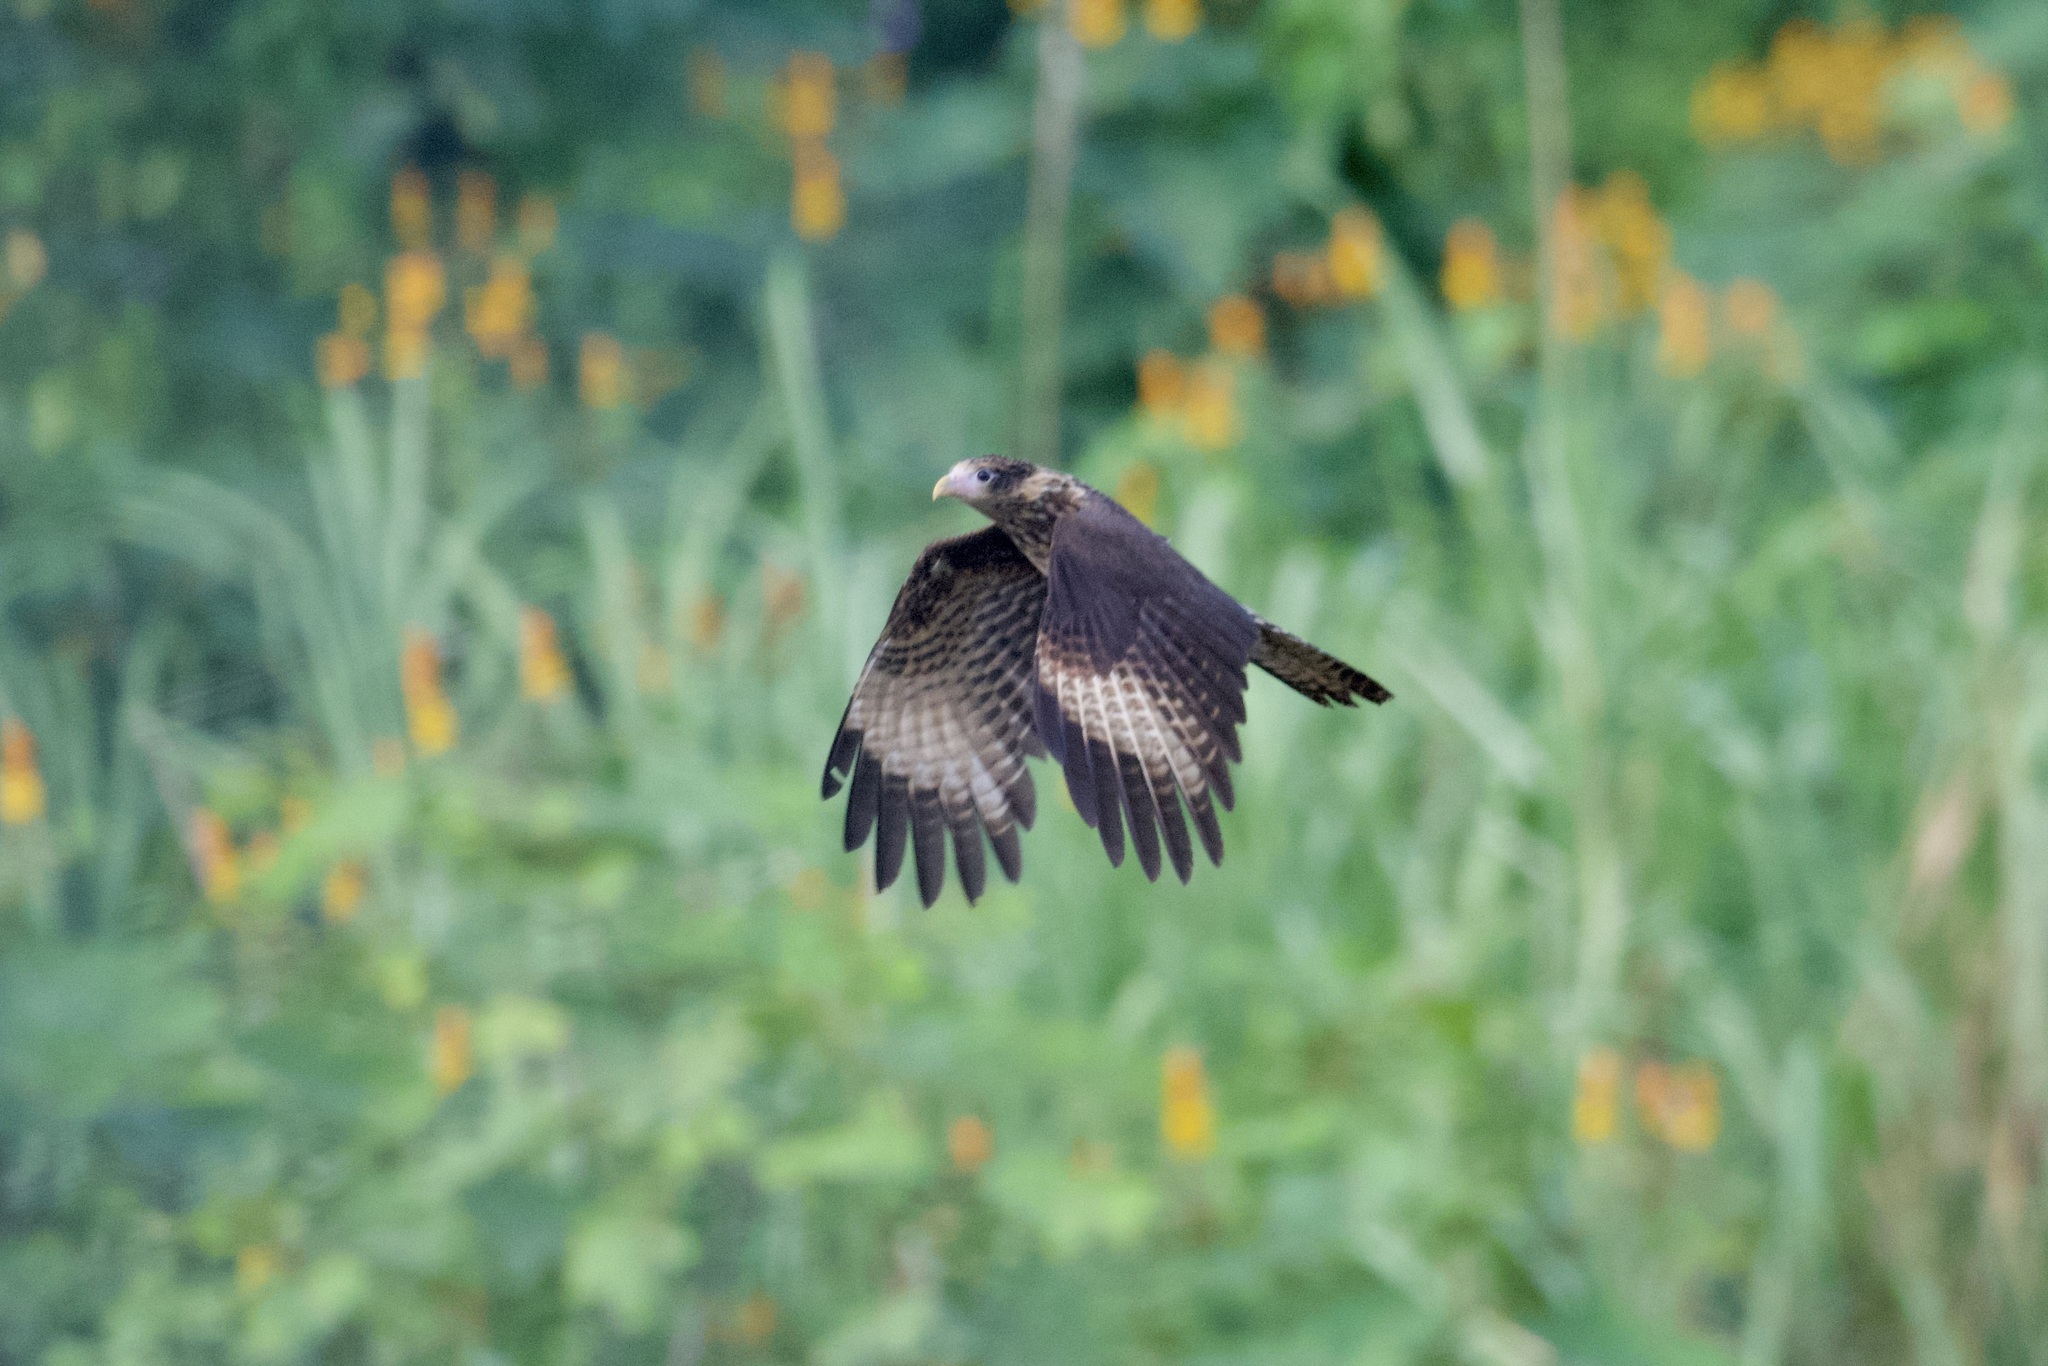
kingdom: Animalia
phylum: Chordata
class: Aves
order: Falconiformes
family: Falconidae
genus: Daptrius
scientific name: Daptrius
